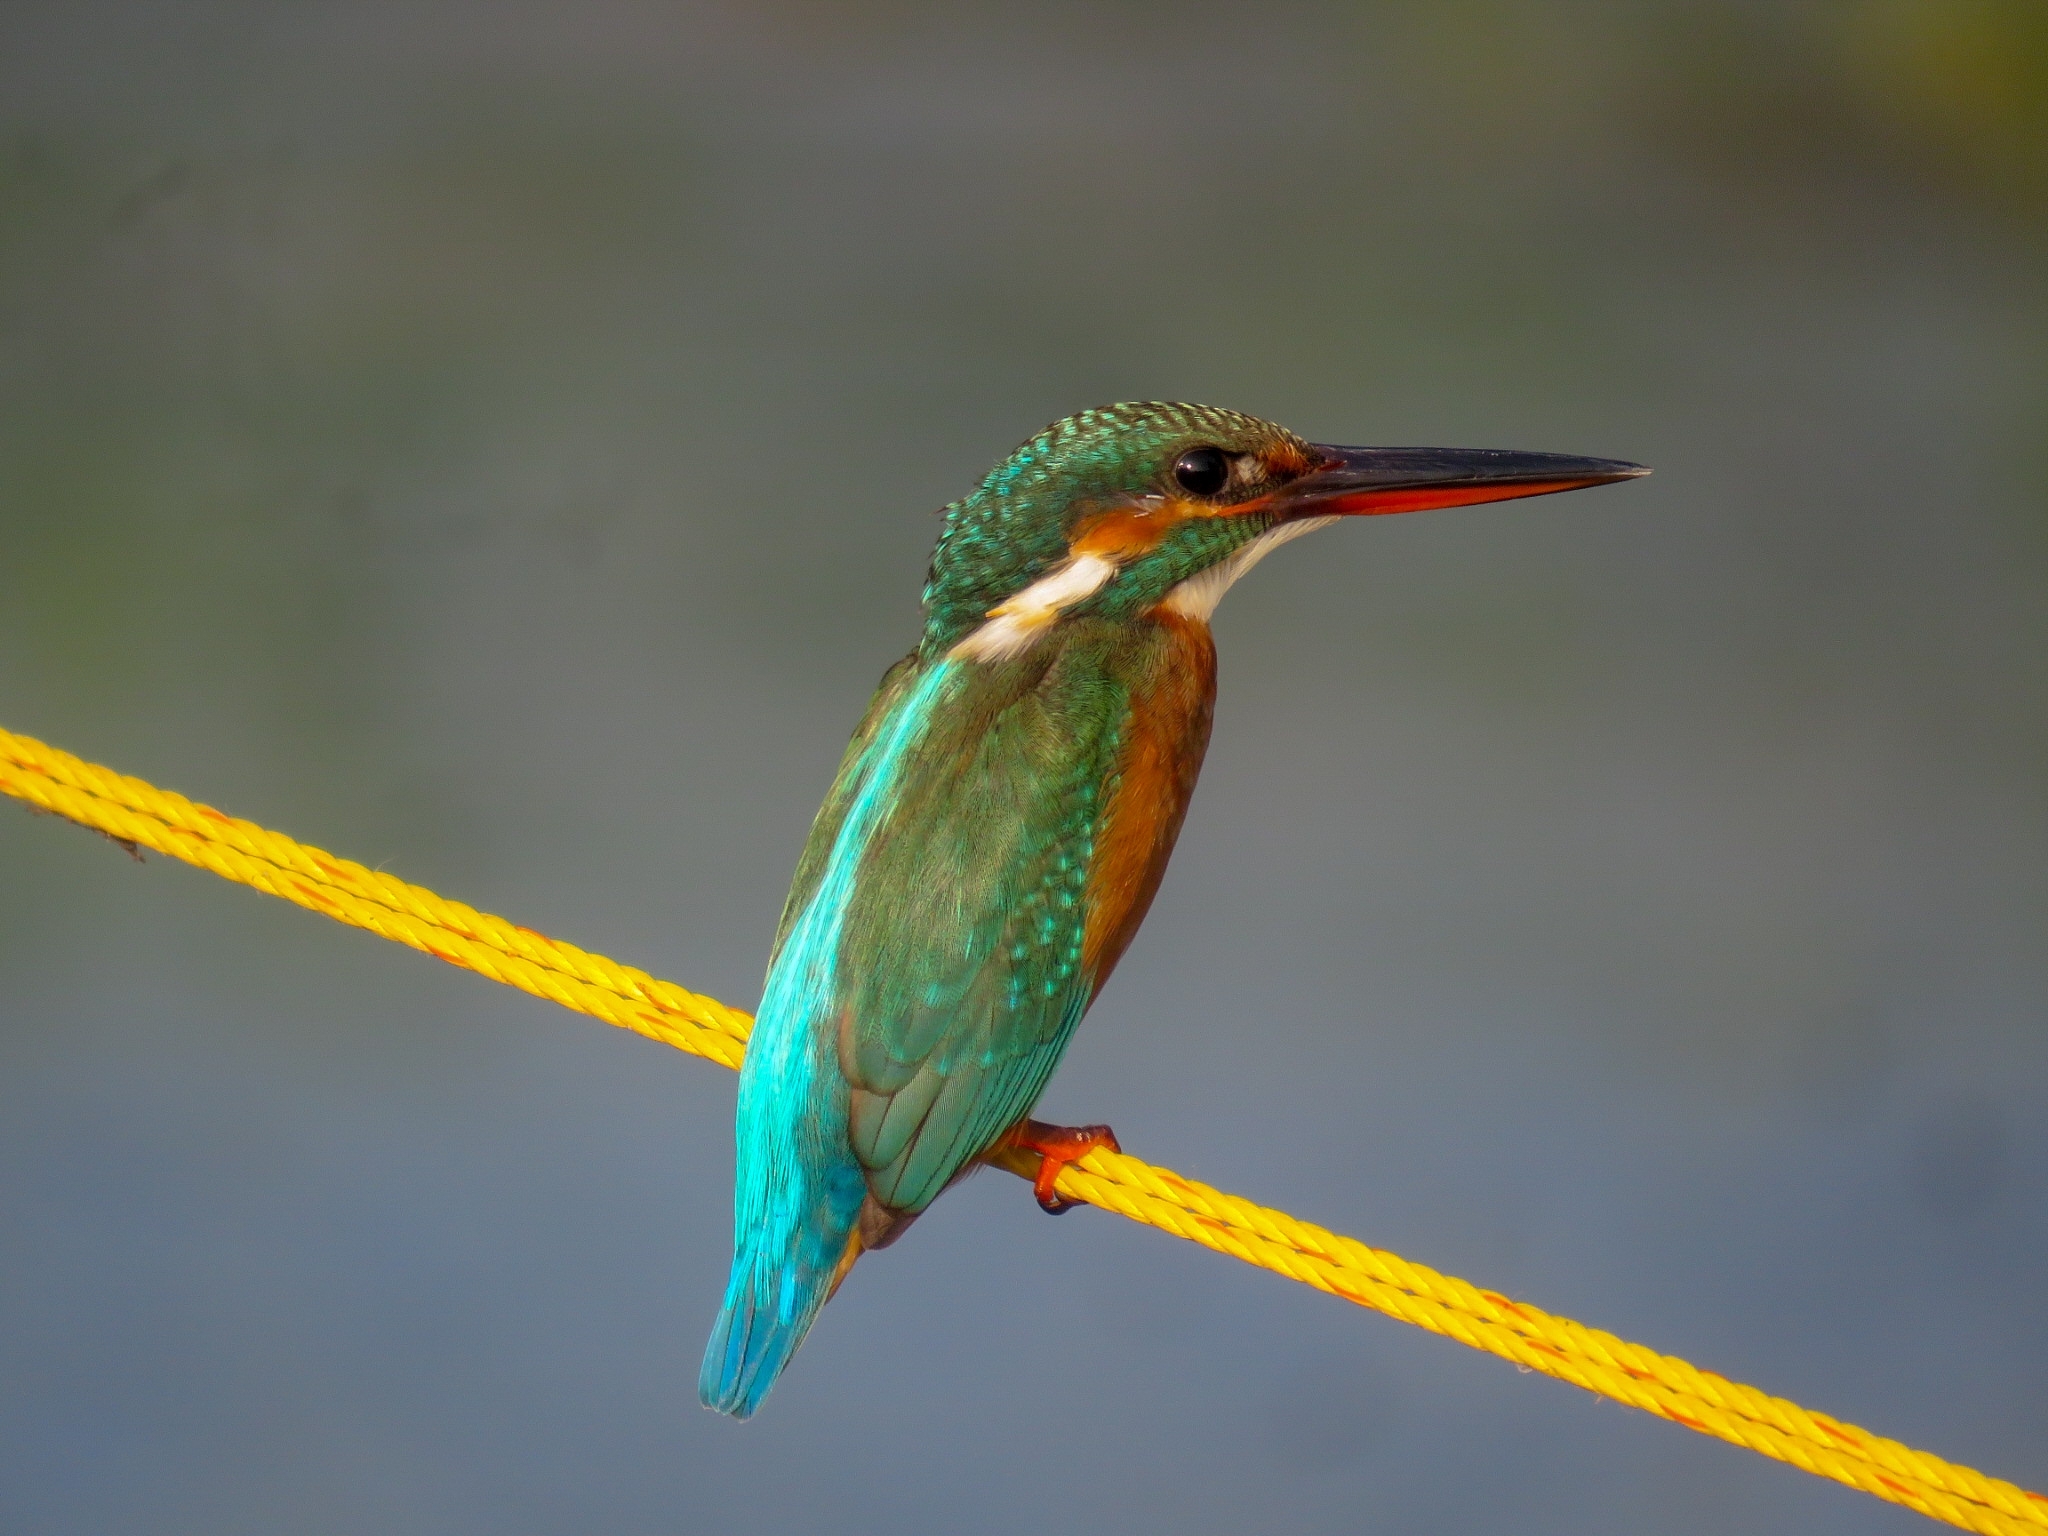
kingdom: Animalia
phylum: Chordata
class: Aves
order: Coraciiformes
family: Alcedinidae
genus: Alcedo
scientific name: Alcedo atthis
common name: Common kingfisher
